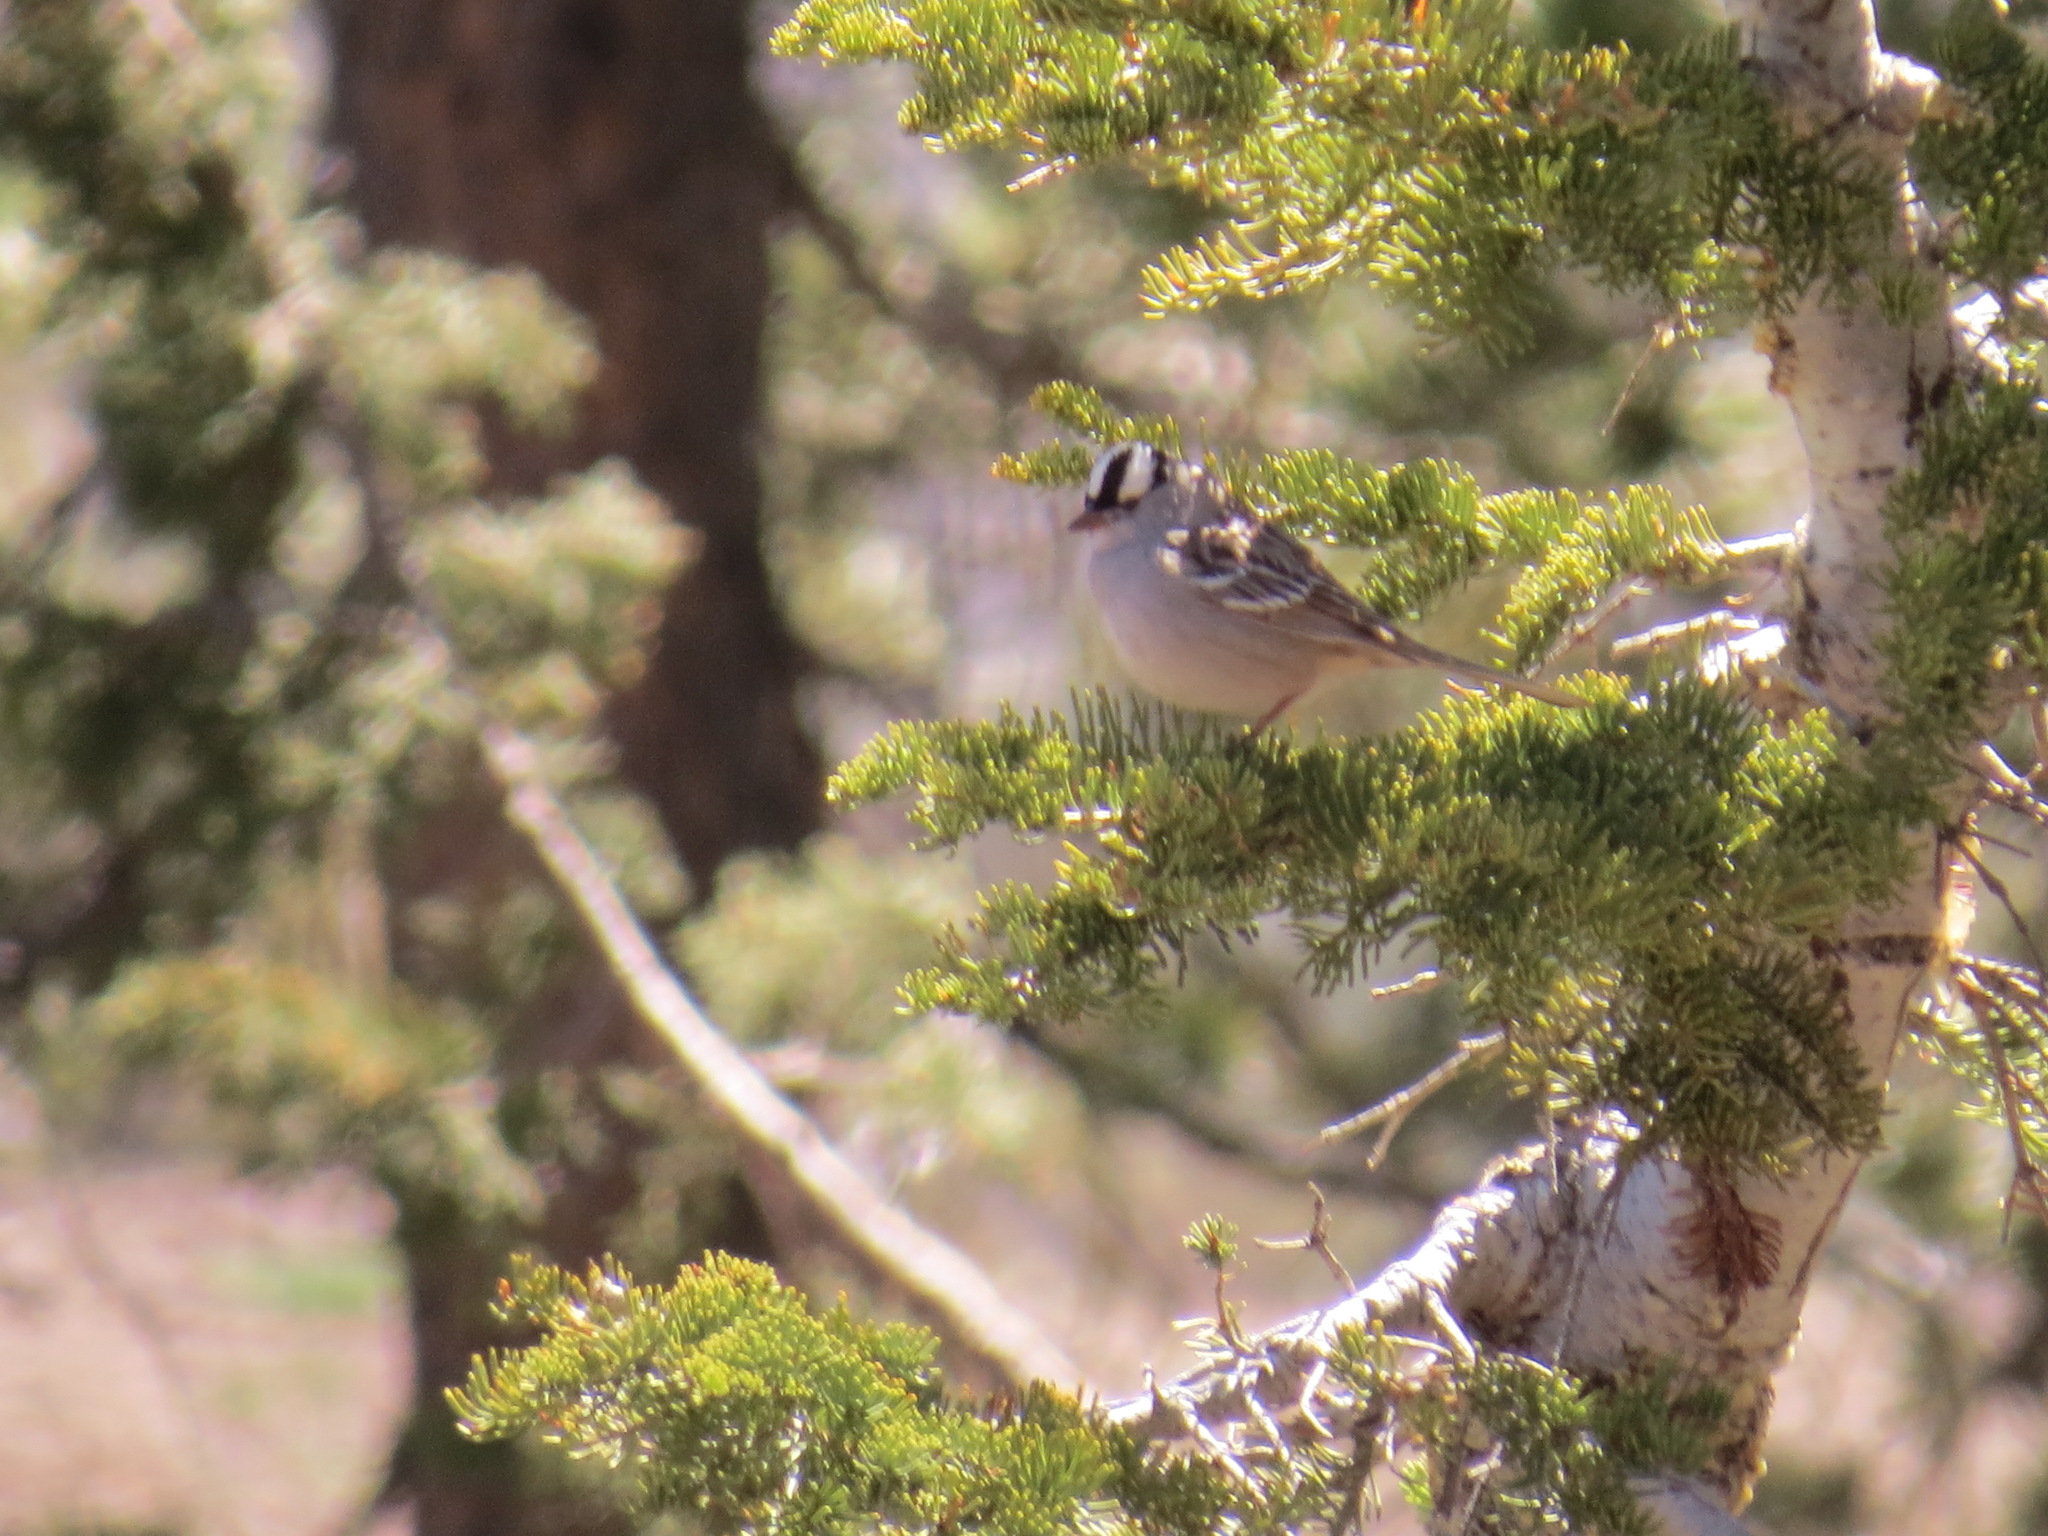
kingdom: Animalia
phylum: Chordata
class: Aves
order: Passeriformes
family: Passerellidae
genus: Zonotrichia
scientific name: Zonotrichia leucophrys
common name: White-crowned sparrow
